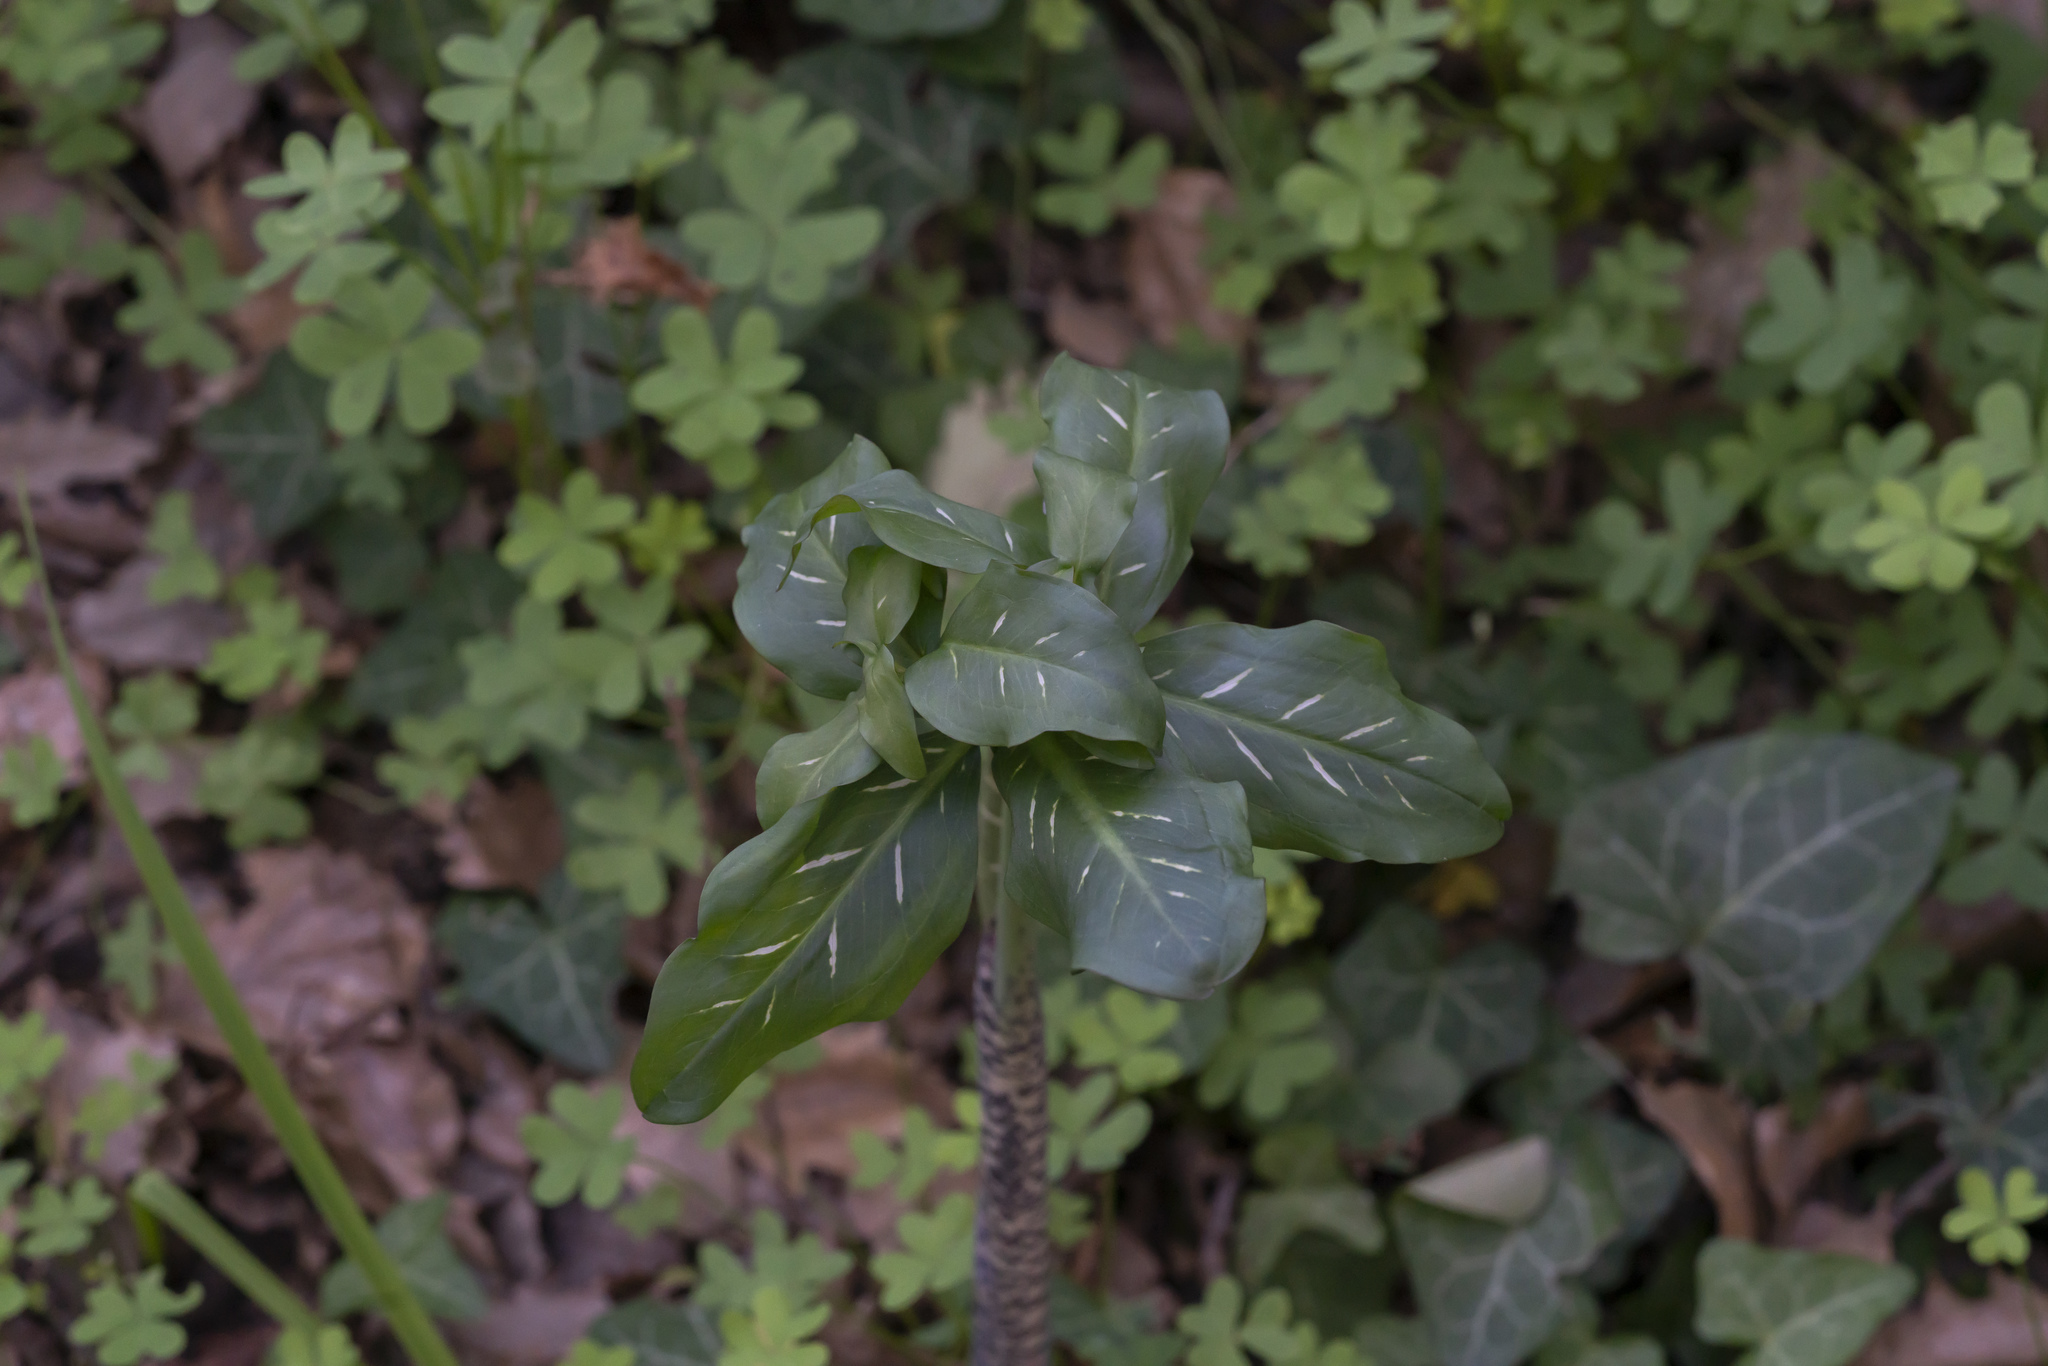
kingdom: Plantae
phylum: Tracheophyta
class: Liliopsida
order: Alismatales
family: Araceae
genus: Dracunculus
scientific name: Dracunculus vulgaris
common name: Dragon arum
